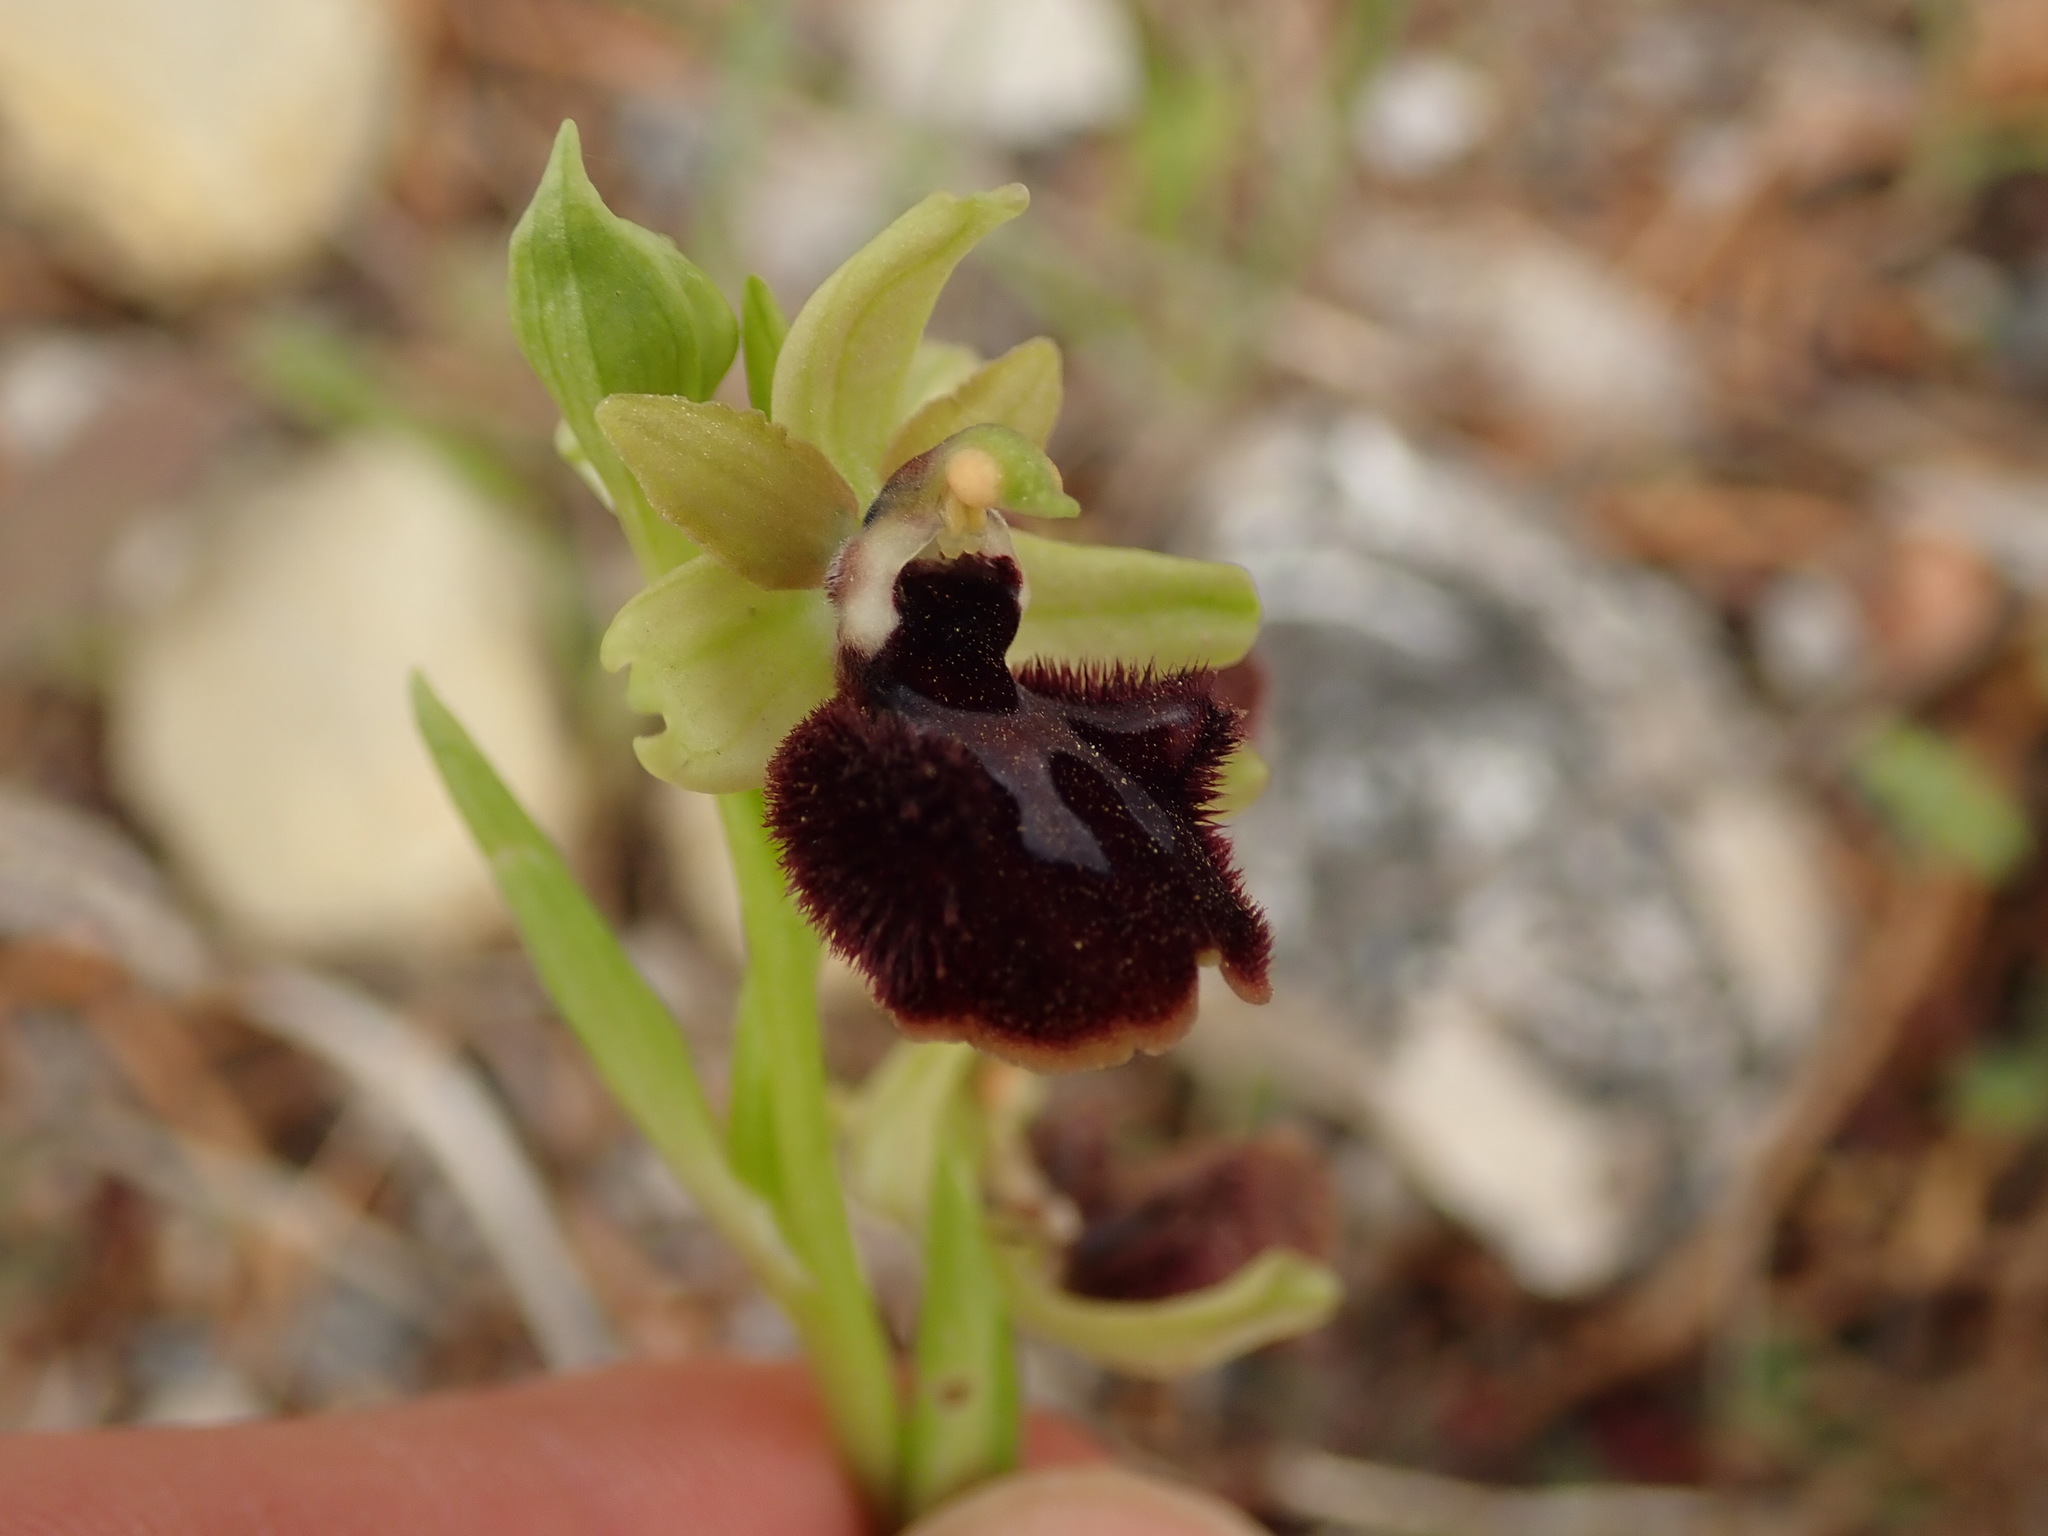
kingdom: Plantae
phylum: Tracheophyta
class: Liliopsida
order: Asparagales
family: Orchidaceae
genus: Ophrys
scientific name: Ophrys sphegodes
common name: Early spider-orchid
